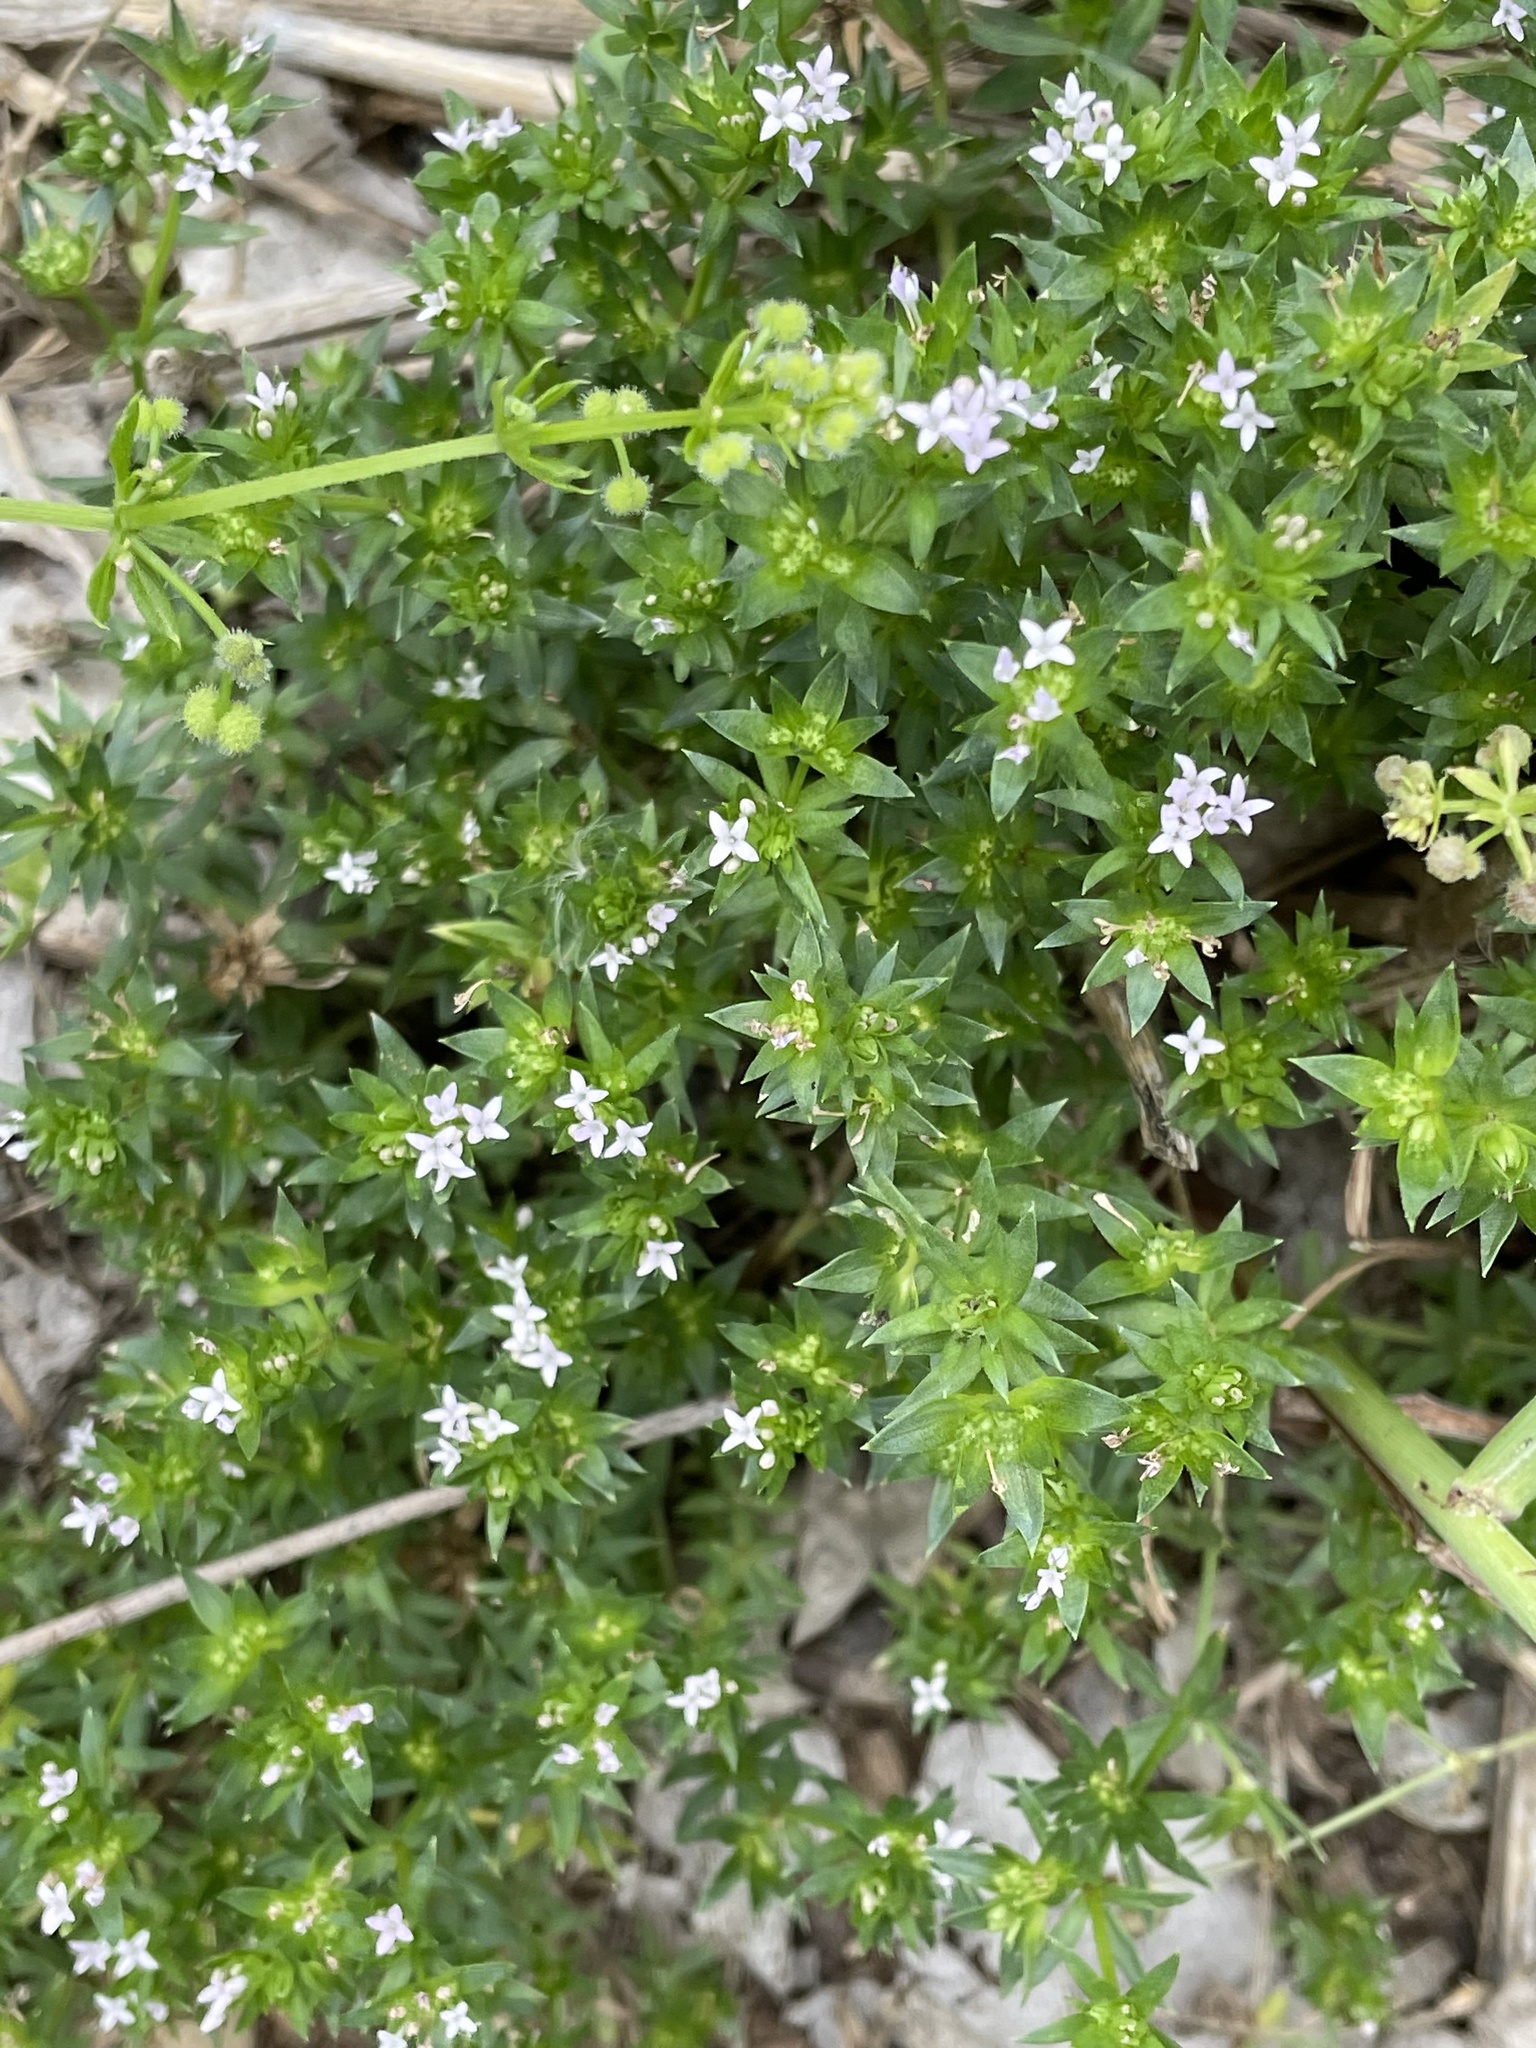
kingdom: Plantae
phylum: Tracheophyta
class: Magnoliopsida
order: Gentianales
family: Rubiaceae
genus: Sherardia
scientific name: Sherardia arvensis
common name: Field madder
